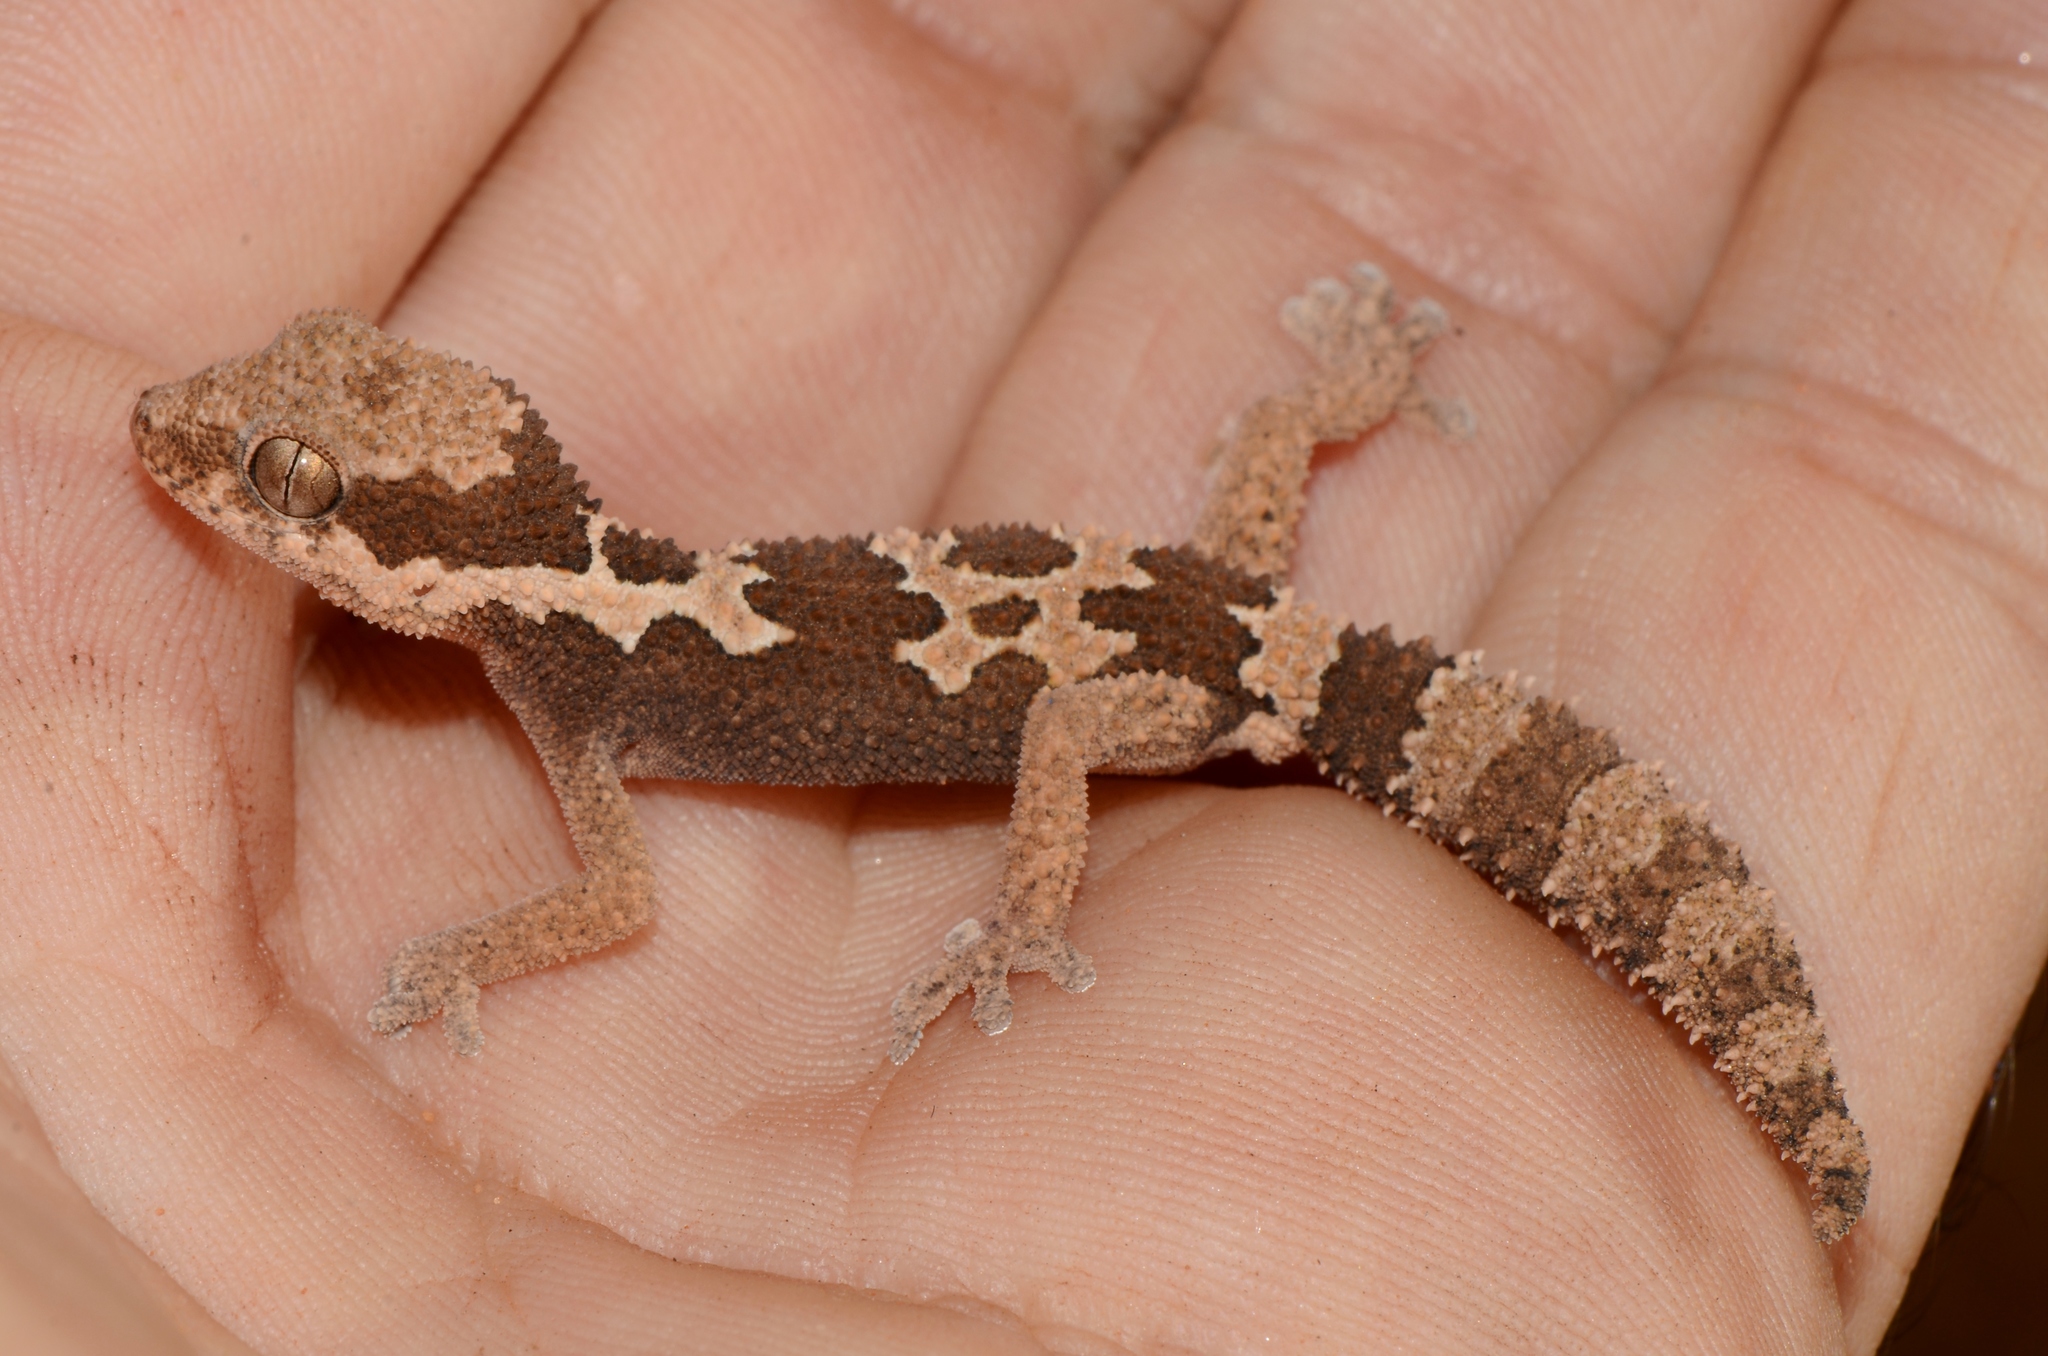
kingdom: Animalia
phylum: Chordata
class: Squamata
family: Gekkonidae
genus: Pachydactylus
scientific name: Pachydactylus rugosus
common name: Common rough gecko
